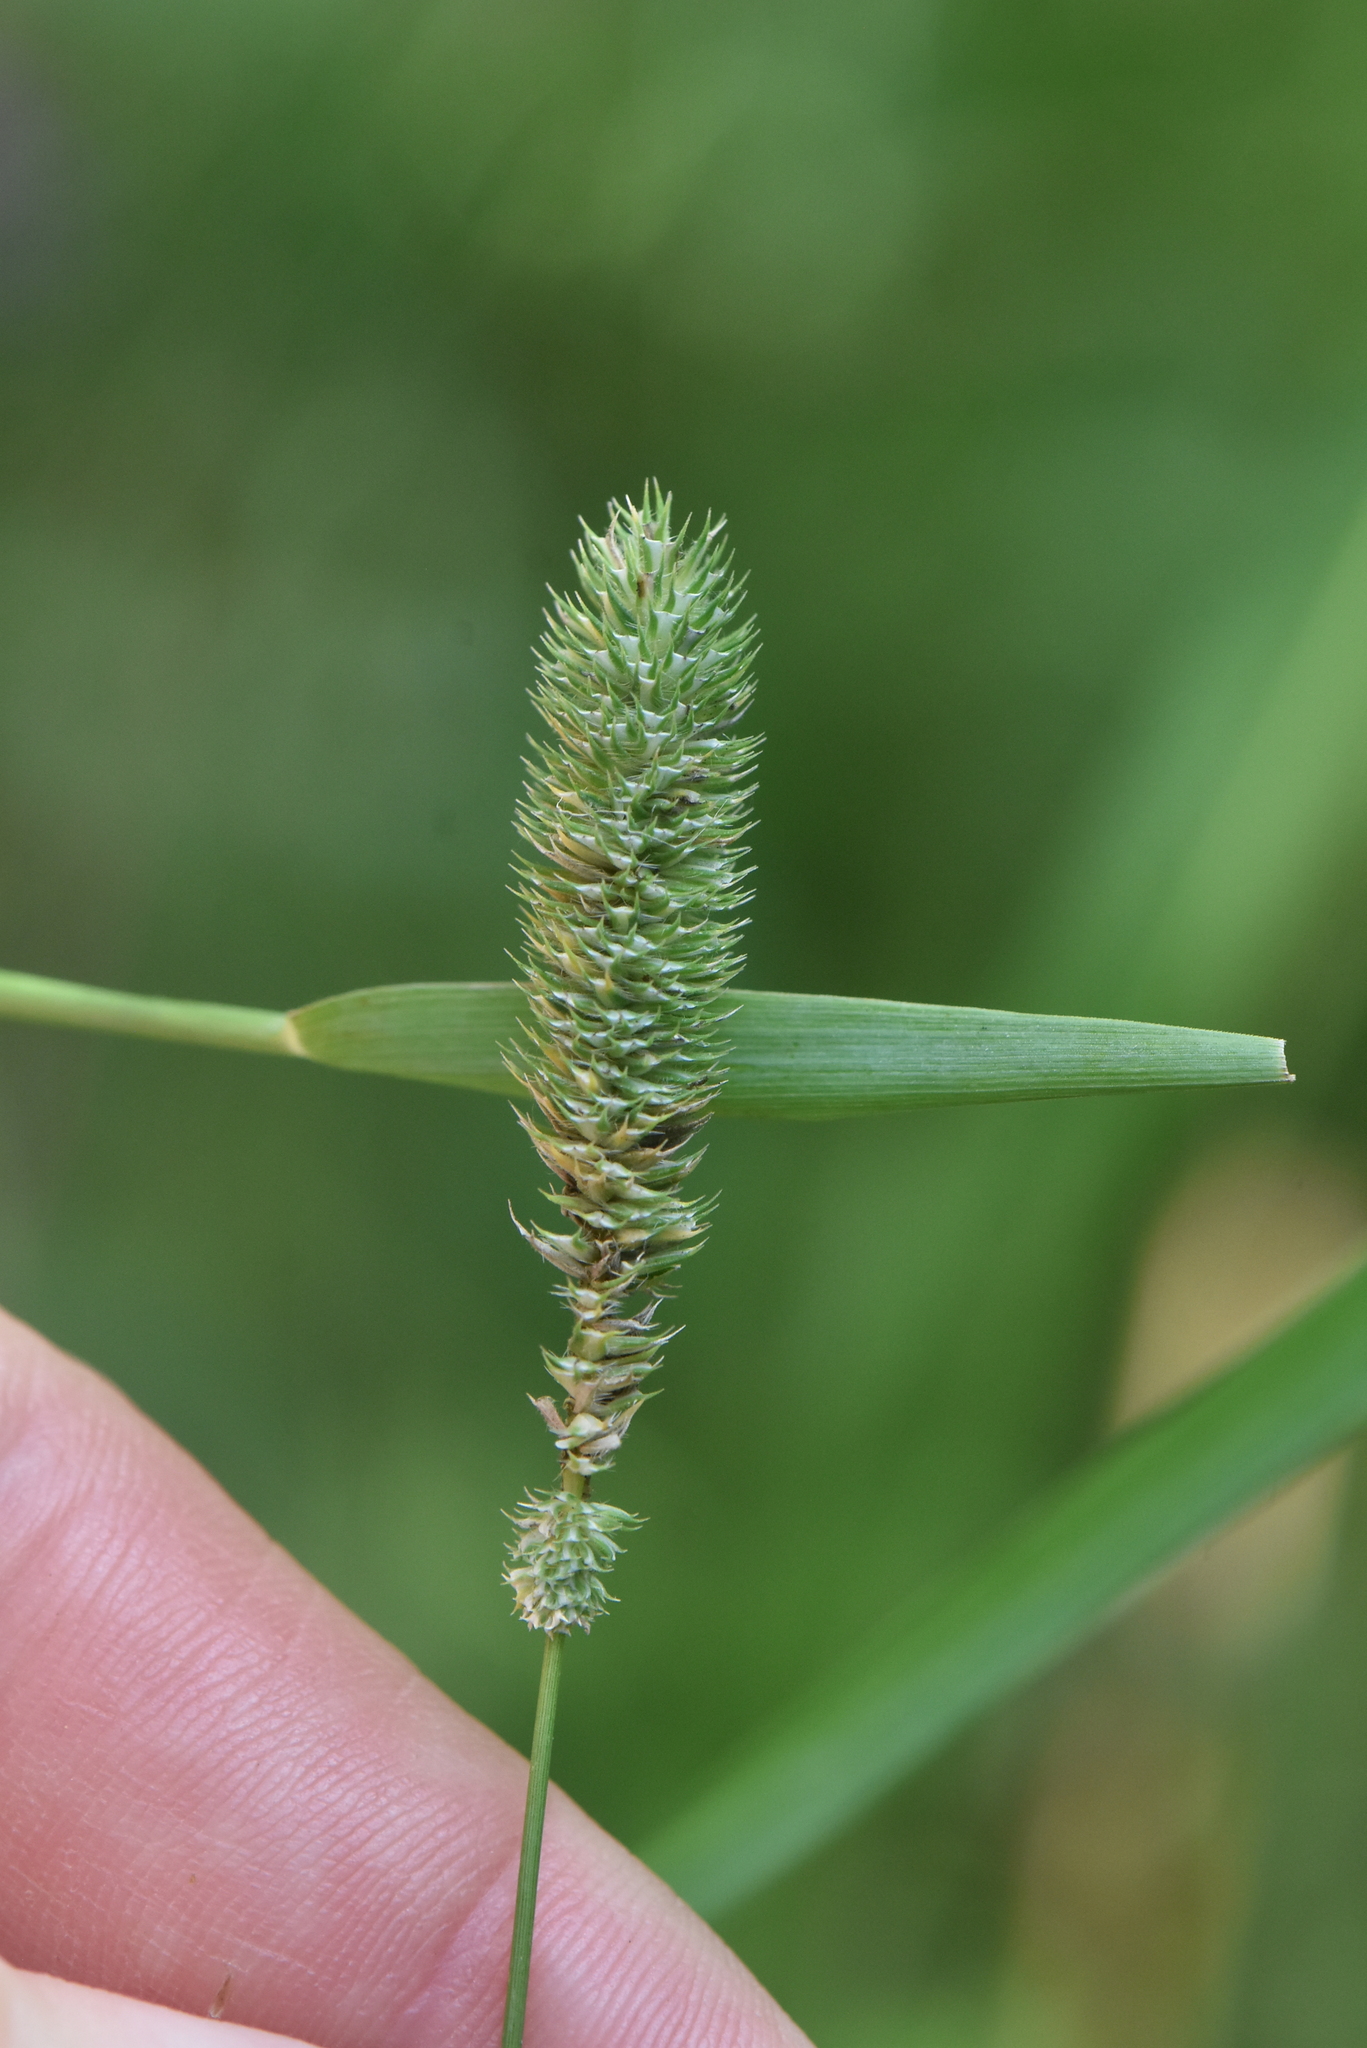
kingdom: Plantae
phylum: Tracheophyta
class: Liliopsida
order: Poales
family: Poaceae
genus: Phleum
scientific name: Phleum pratense
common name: Timothy grass
